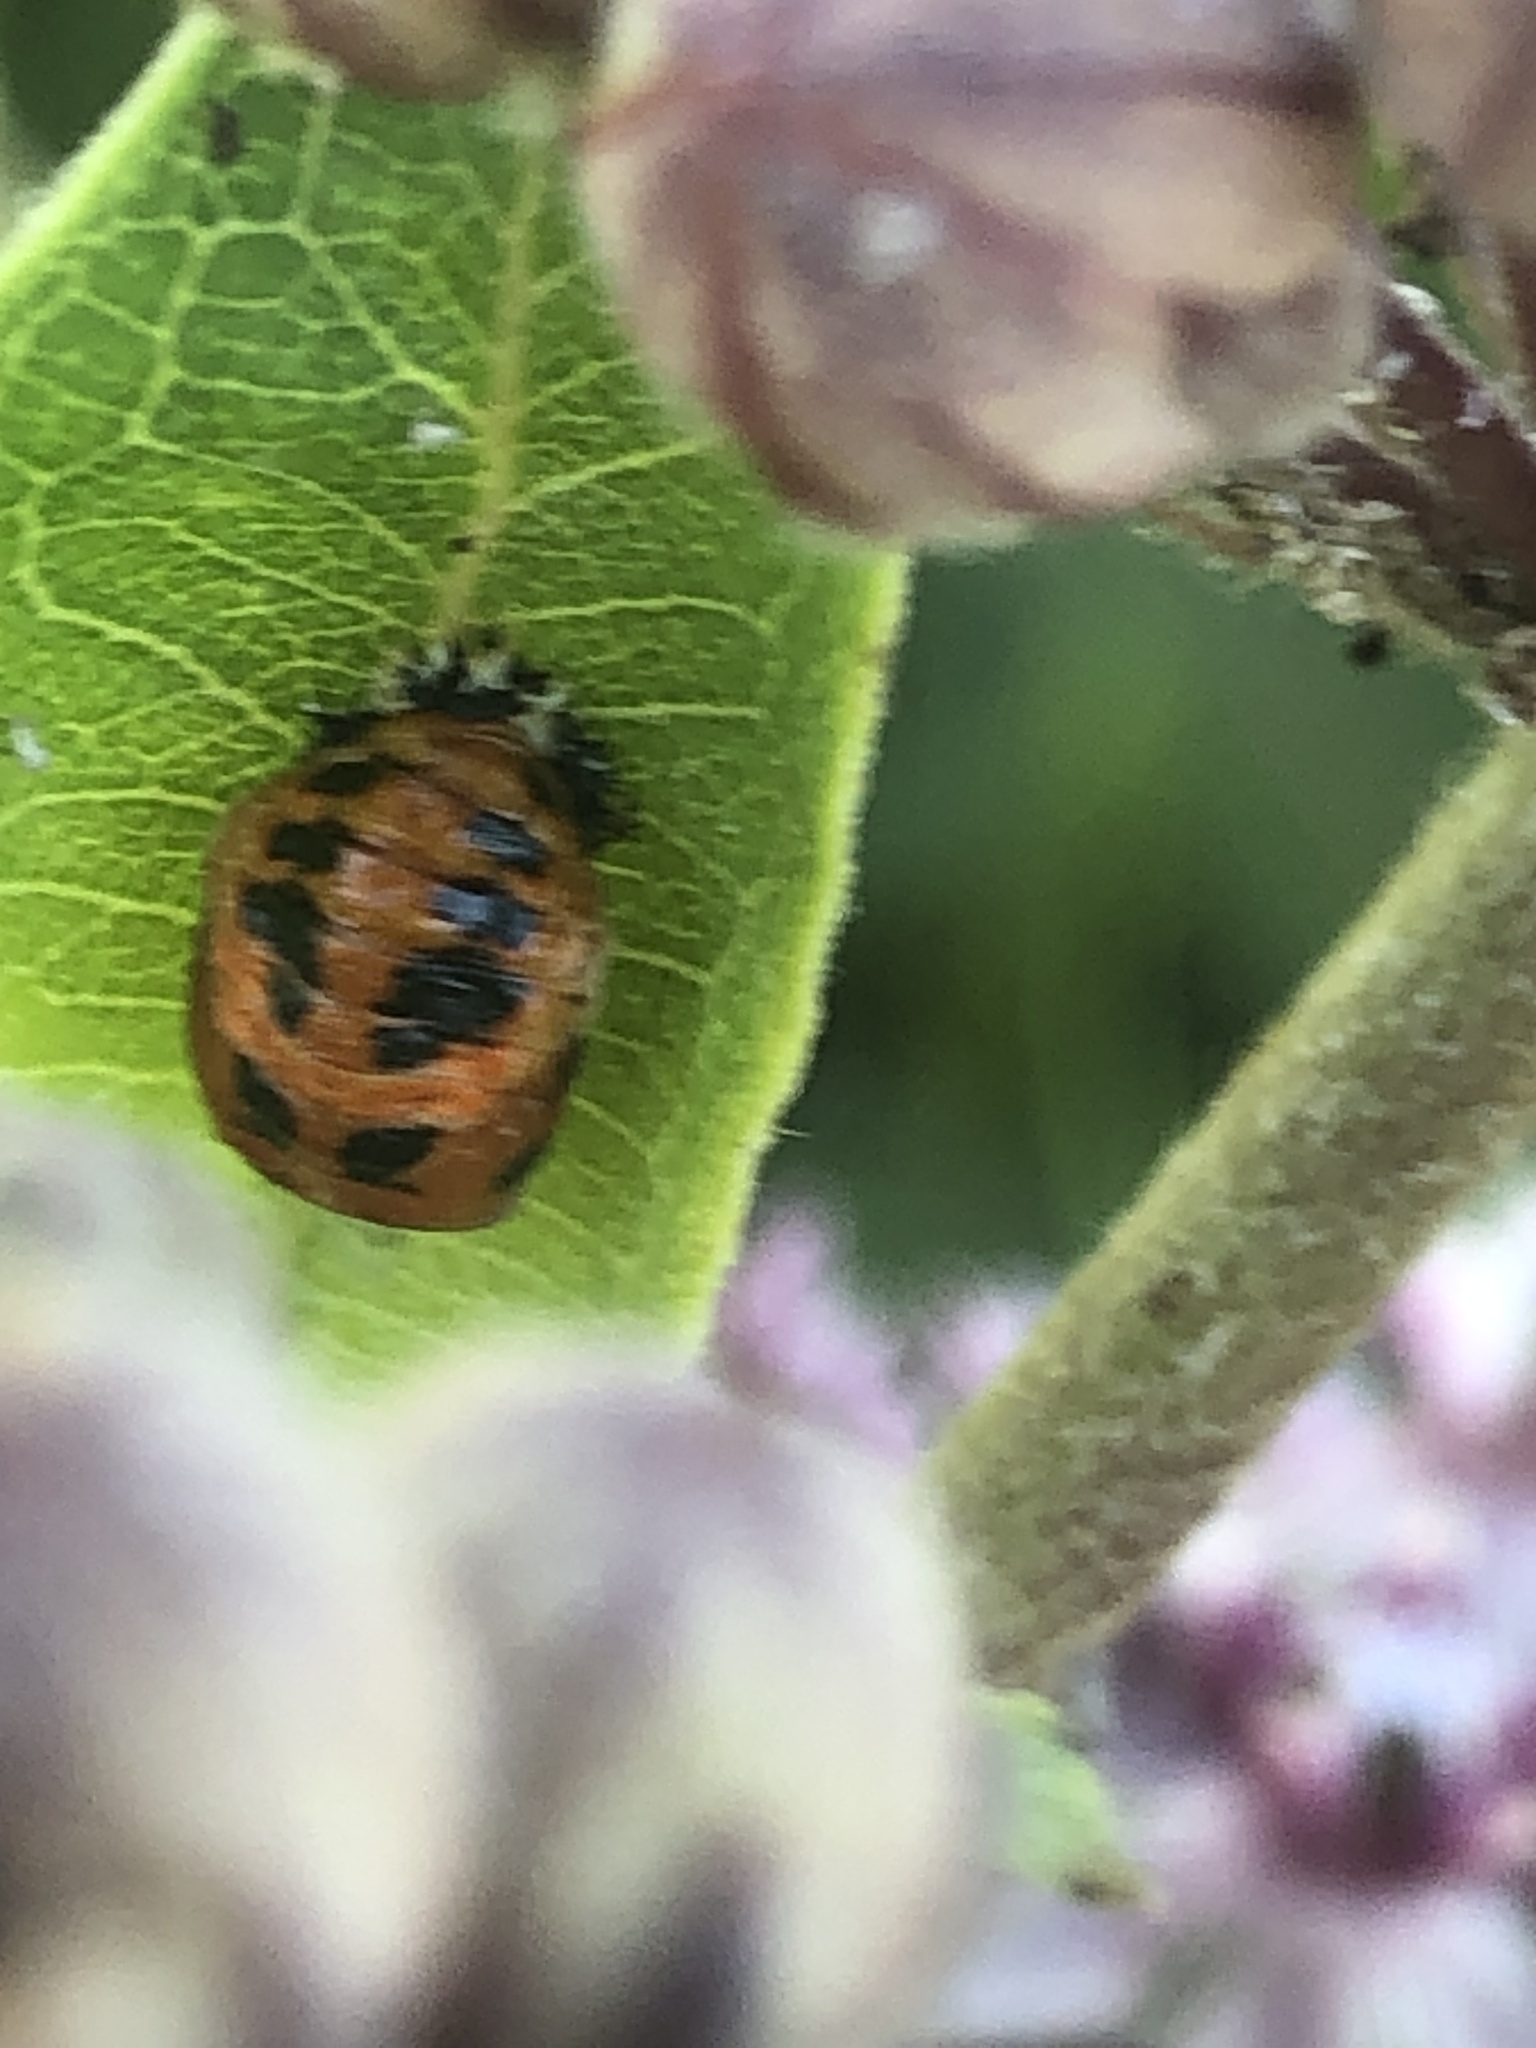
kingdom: Animalia
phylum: Arthropoda
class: Insecta
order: Coleoptera
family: Coccinellidae
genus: Harmonia
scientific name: Harmonia axyridis
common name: Harlequin ladybird
